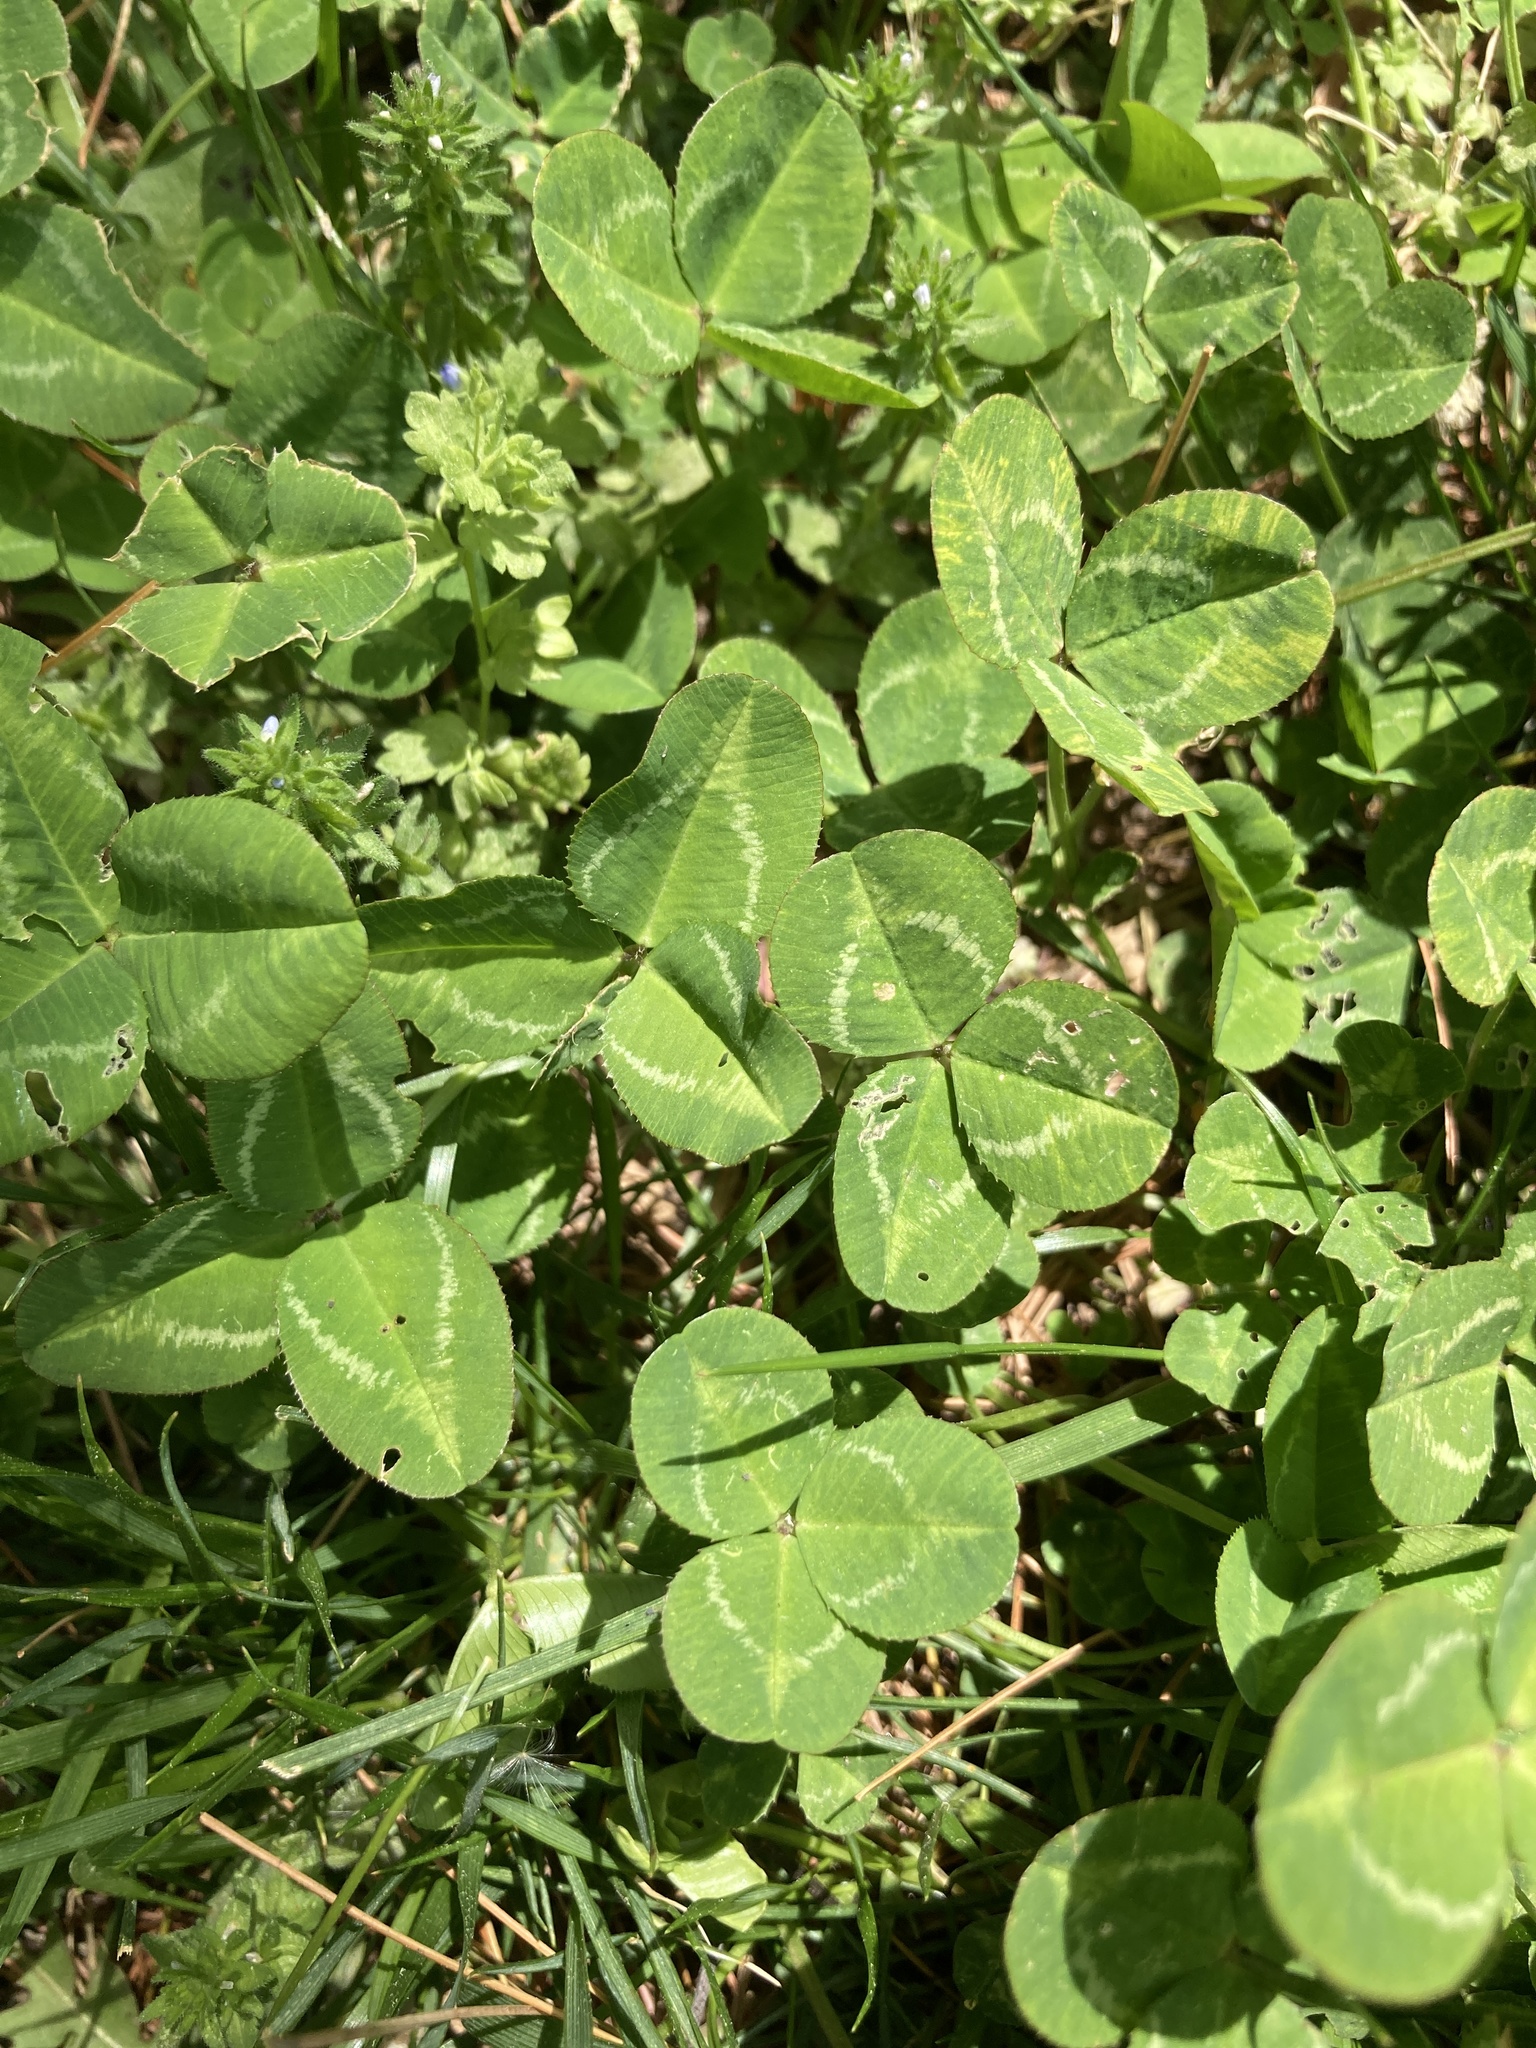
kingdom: Plantae
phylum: Tracheophyta
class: Magnoliopsida
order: Fabales
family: Fabaceae
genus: Trifolium
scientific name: Trifolium repens
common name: White clover
